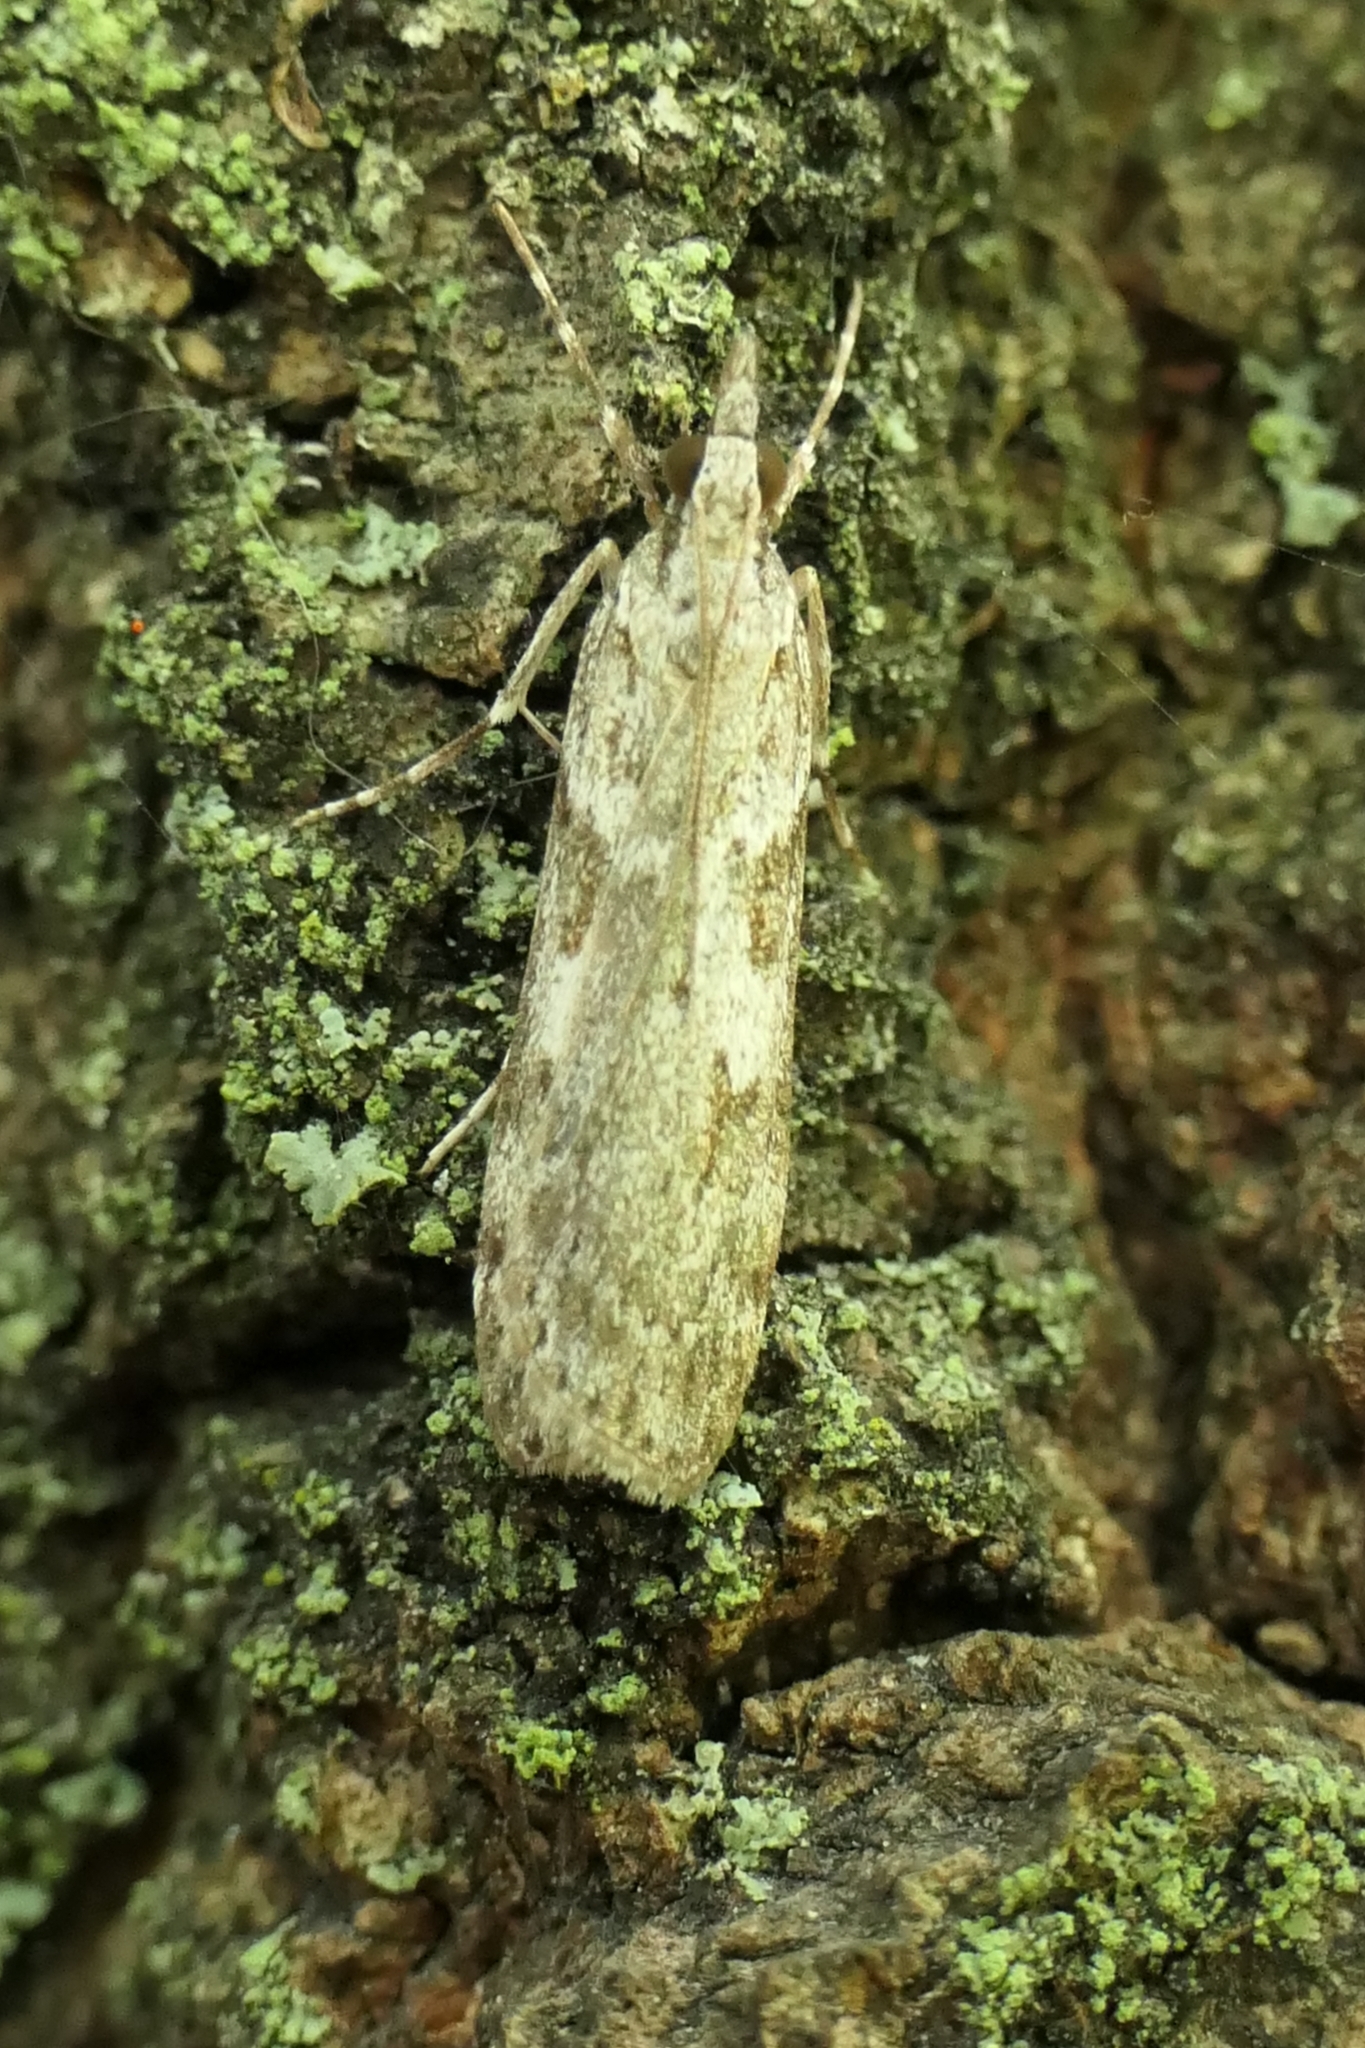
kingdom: Animalia
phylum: Arthropoda
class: Insecta
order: Lepidoptera
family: Crambidae
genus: Scoparia
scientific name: Scoparia halopis
